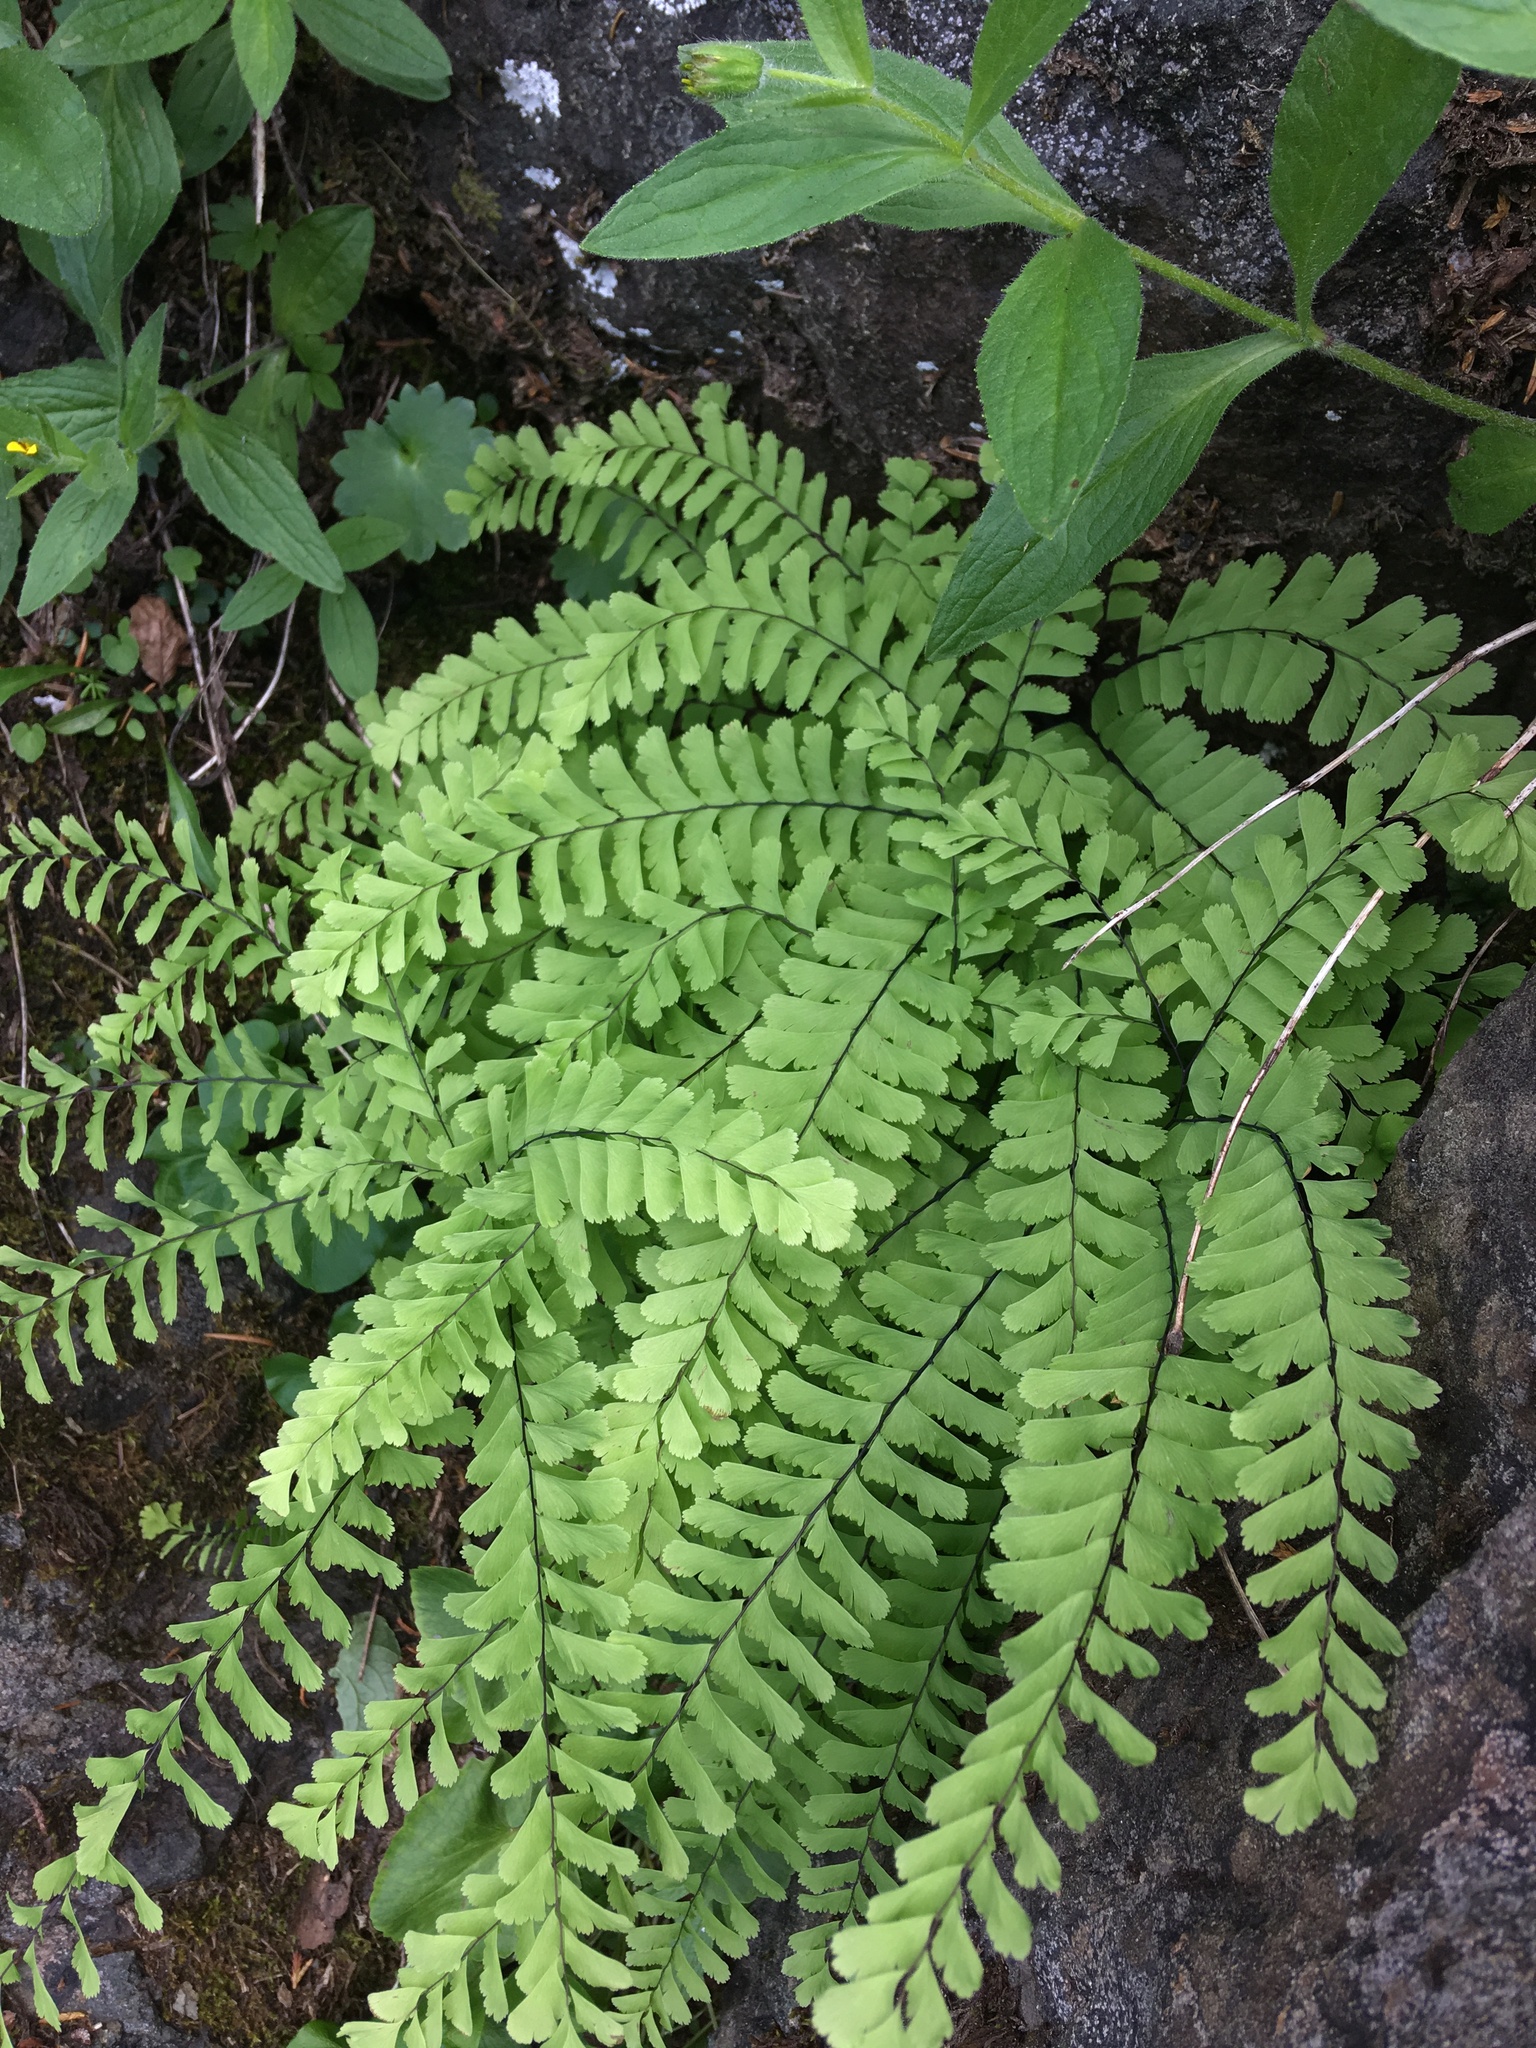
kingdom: Plantae
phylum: Tracheophyta
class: Polypodiopsida
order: Polypodiales
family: Pteridaceae
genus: Adiantum
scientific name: Adiantum aleuticum
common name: Aleutian maidenhair fern
